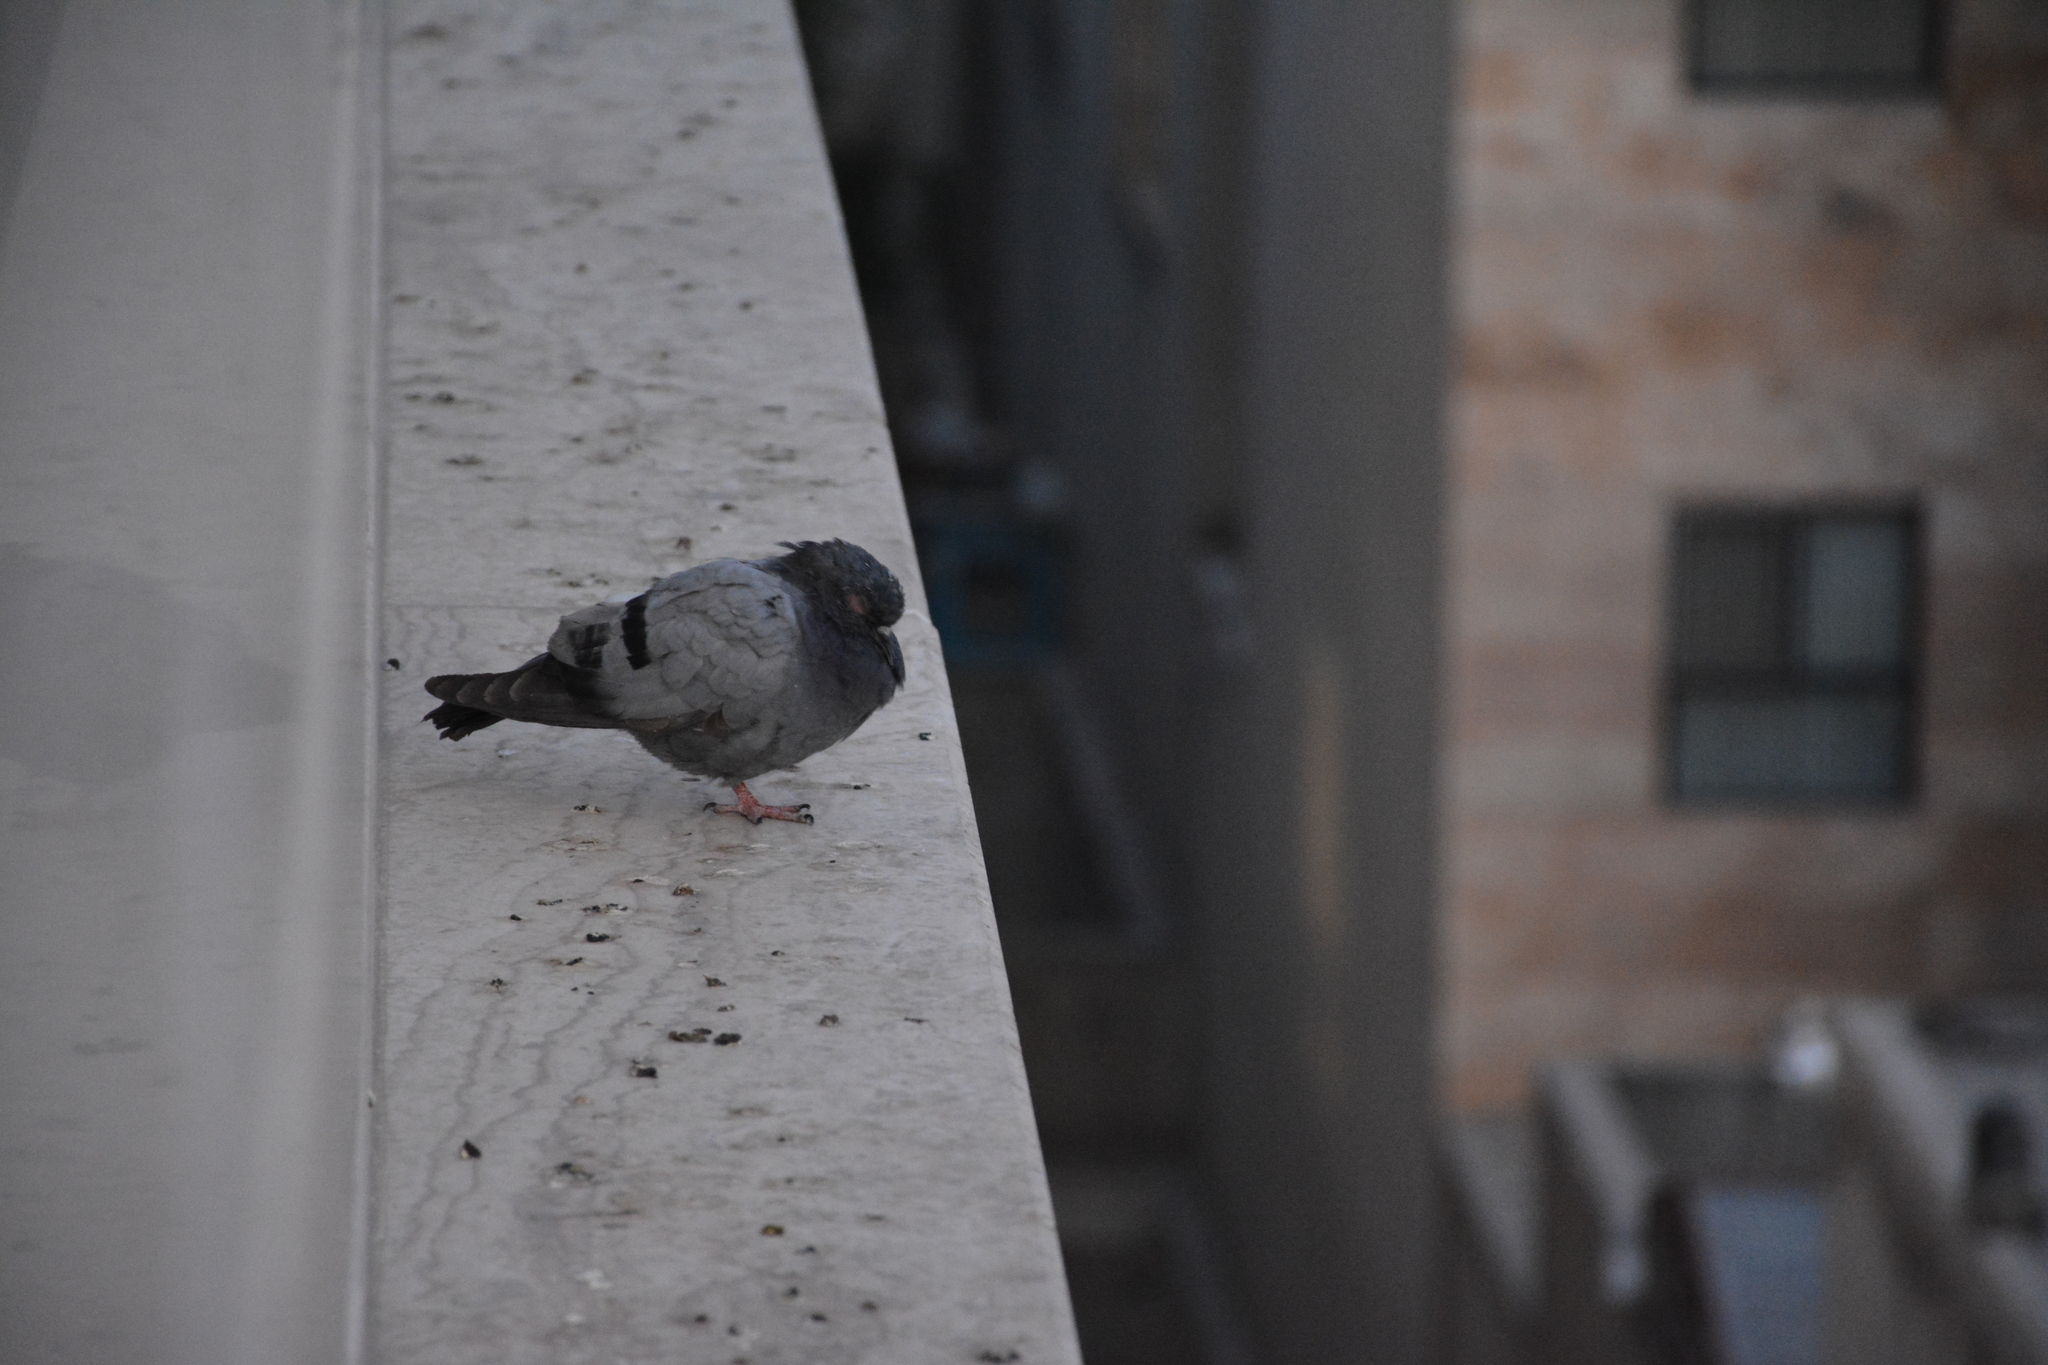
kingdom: Animalia
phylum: Chordata
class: Aves
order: Columbiformes
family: Columbidae
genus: Columba
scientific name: Columba livia
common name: Rock pigeon
